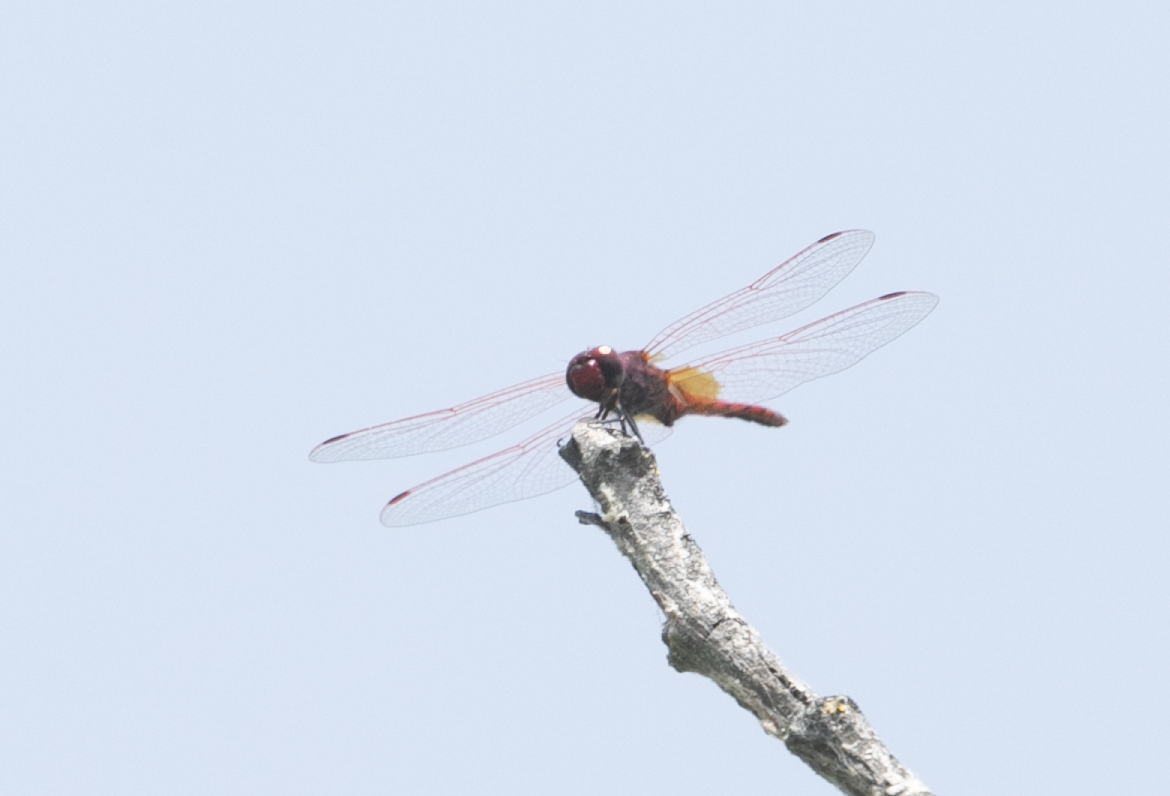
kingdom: Animalia
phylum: Arthropoda
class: Insecta
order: Odonata
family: Libellulidae
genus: Trithemis
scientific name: Trithemis annulata
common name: Violet dropwing
